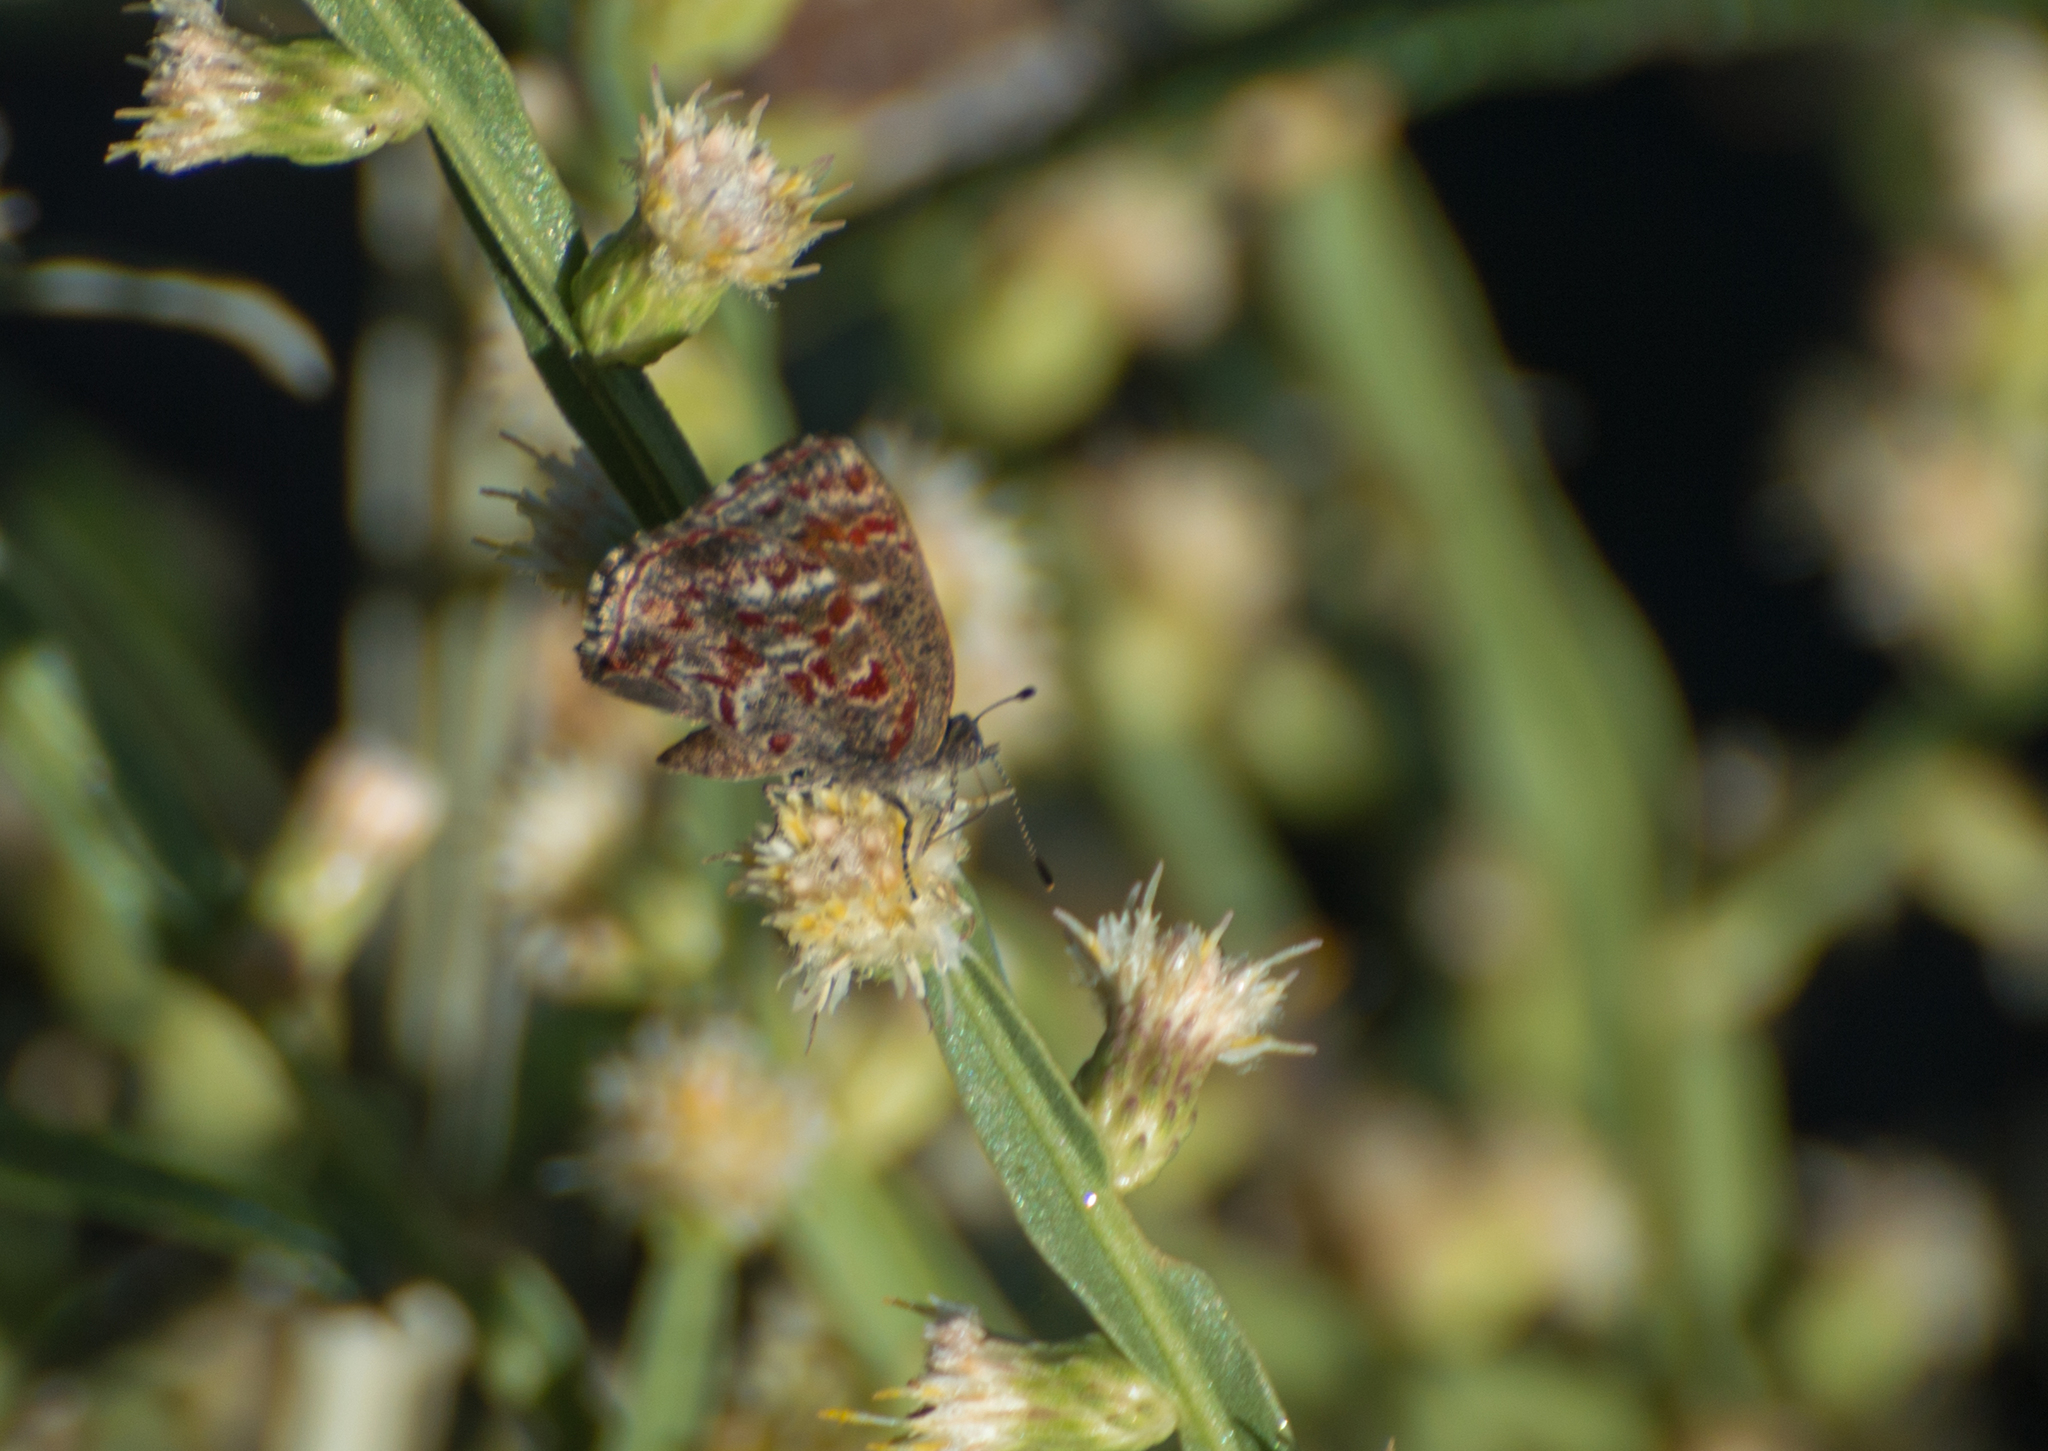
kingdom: Animalia
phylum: Arthropoda
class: Insecta
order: Lepidoptera
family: Lycaenidae
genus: Ministrymon
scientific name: Ministrymon
